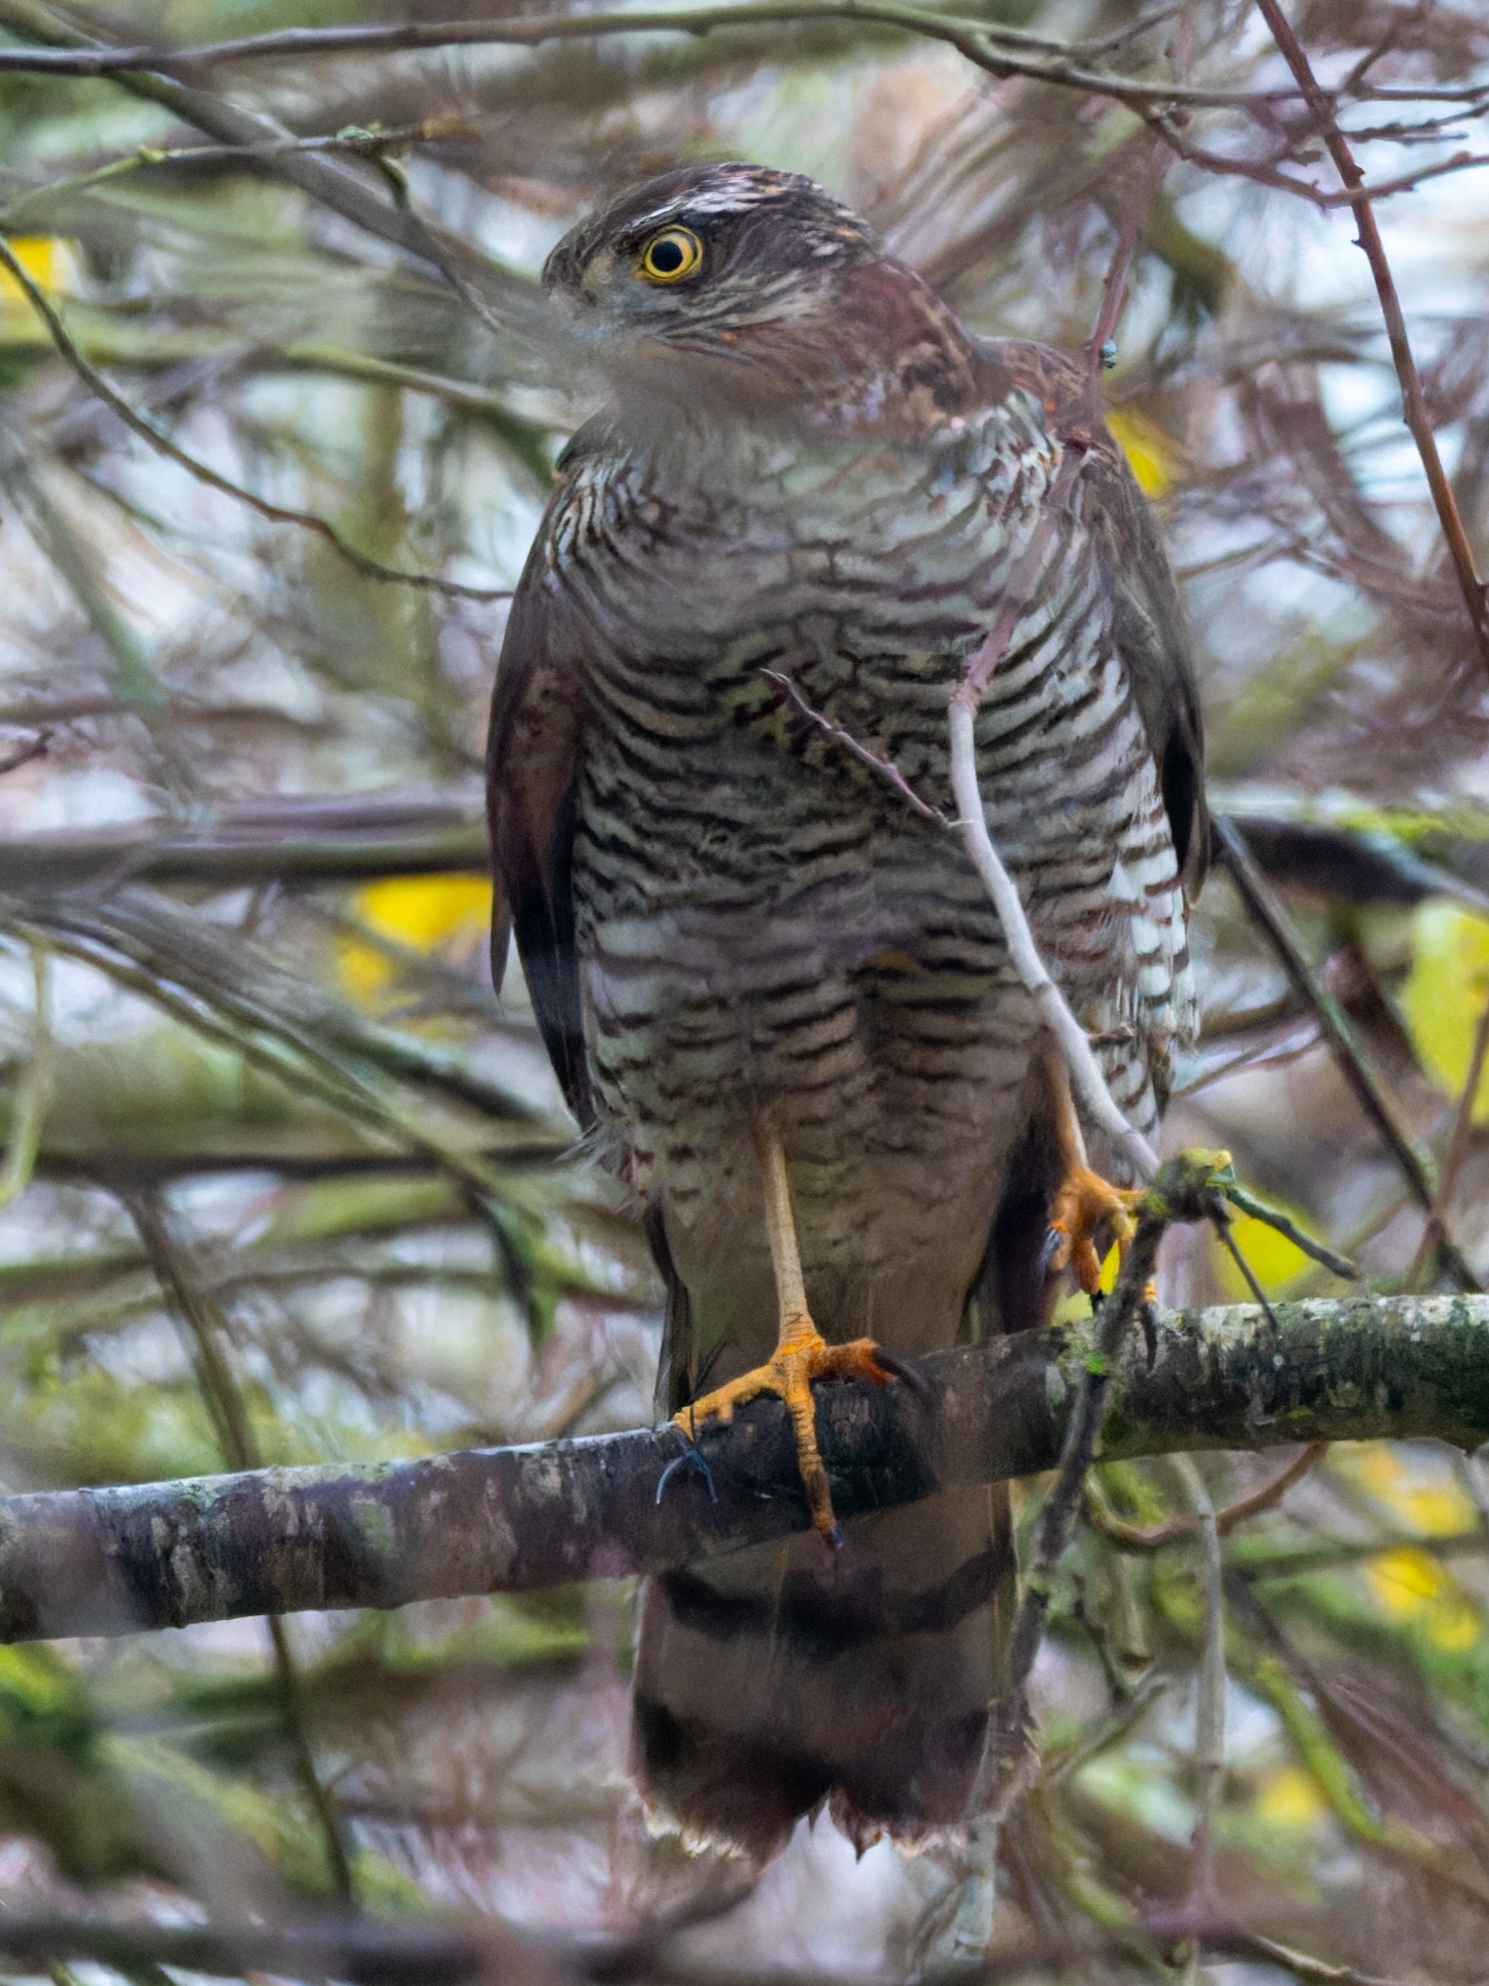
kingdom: Animalia
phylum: Chordata
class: Aves
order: Accipitriformes
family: Accipitridae
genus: Accipiter
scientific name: Accipiter nisus
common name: Eurasian sparrowhawk
